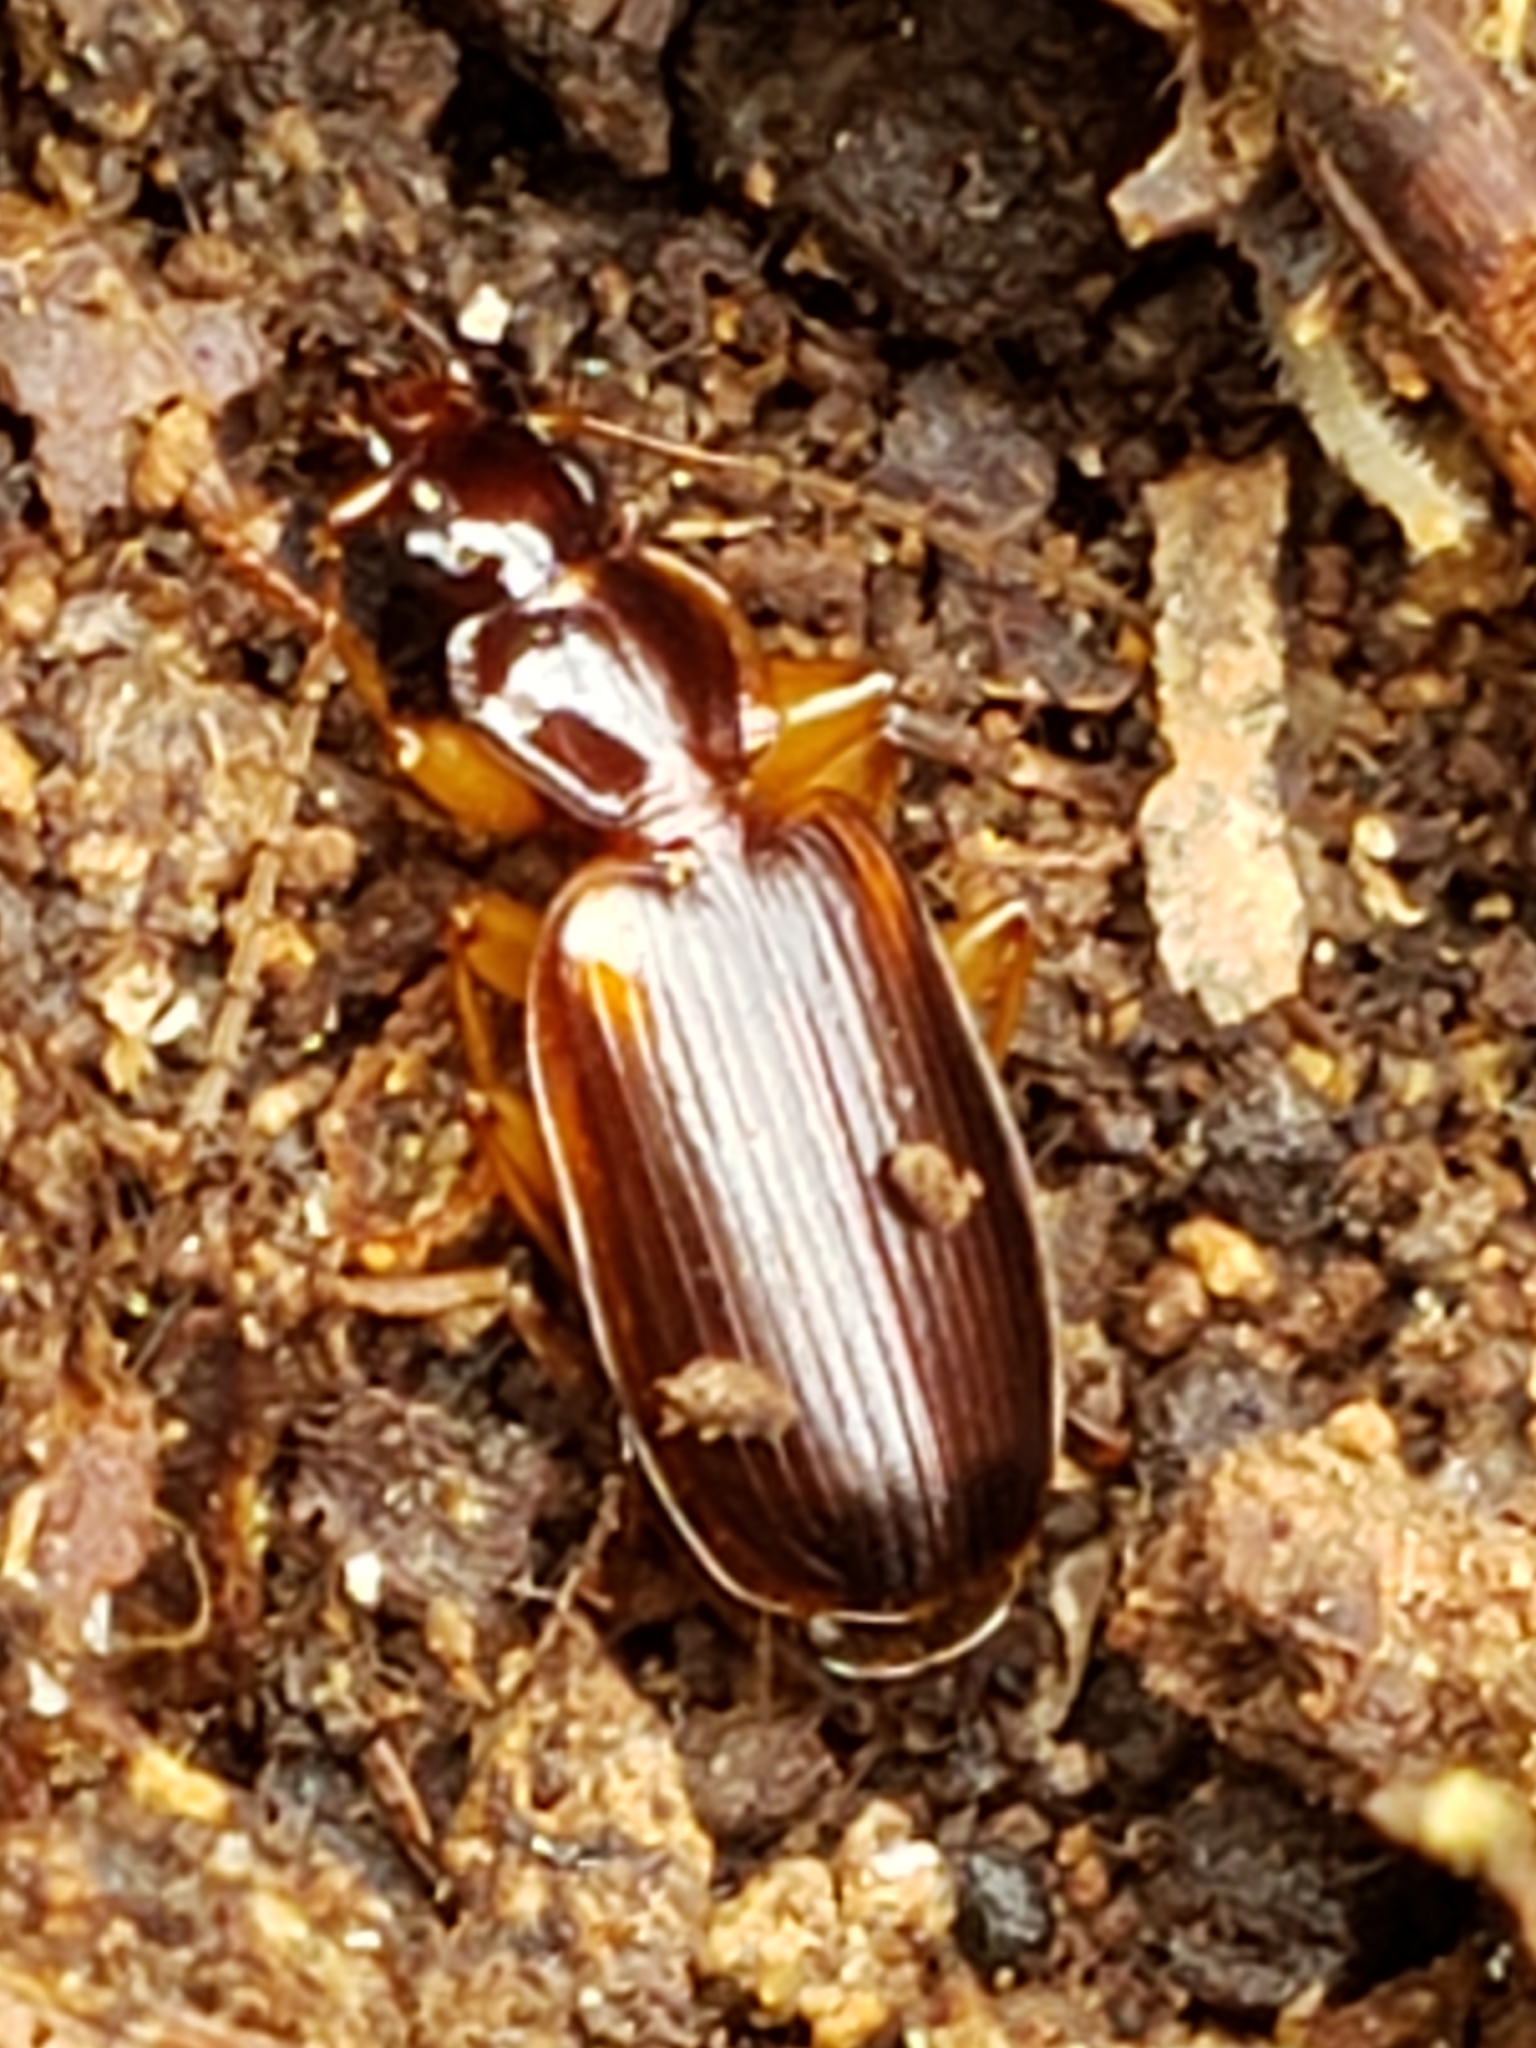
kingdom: Animalia
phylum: Arthropoda
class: Insecta
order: Coleoptera
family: Carabidae
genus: Pinacodera
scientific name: Pinacodera limbata
